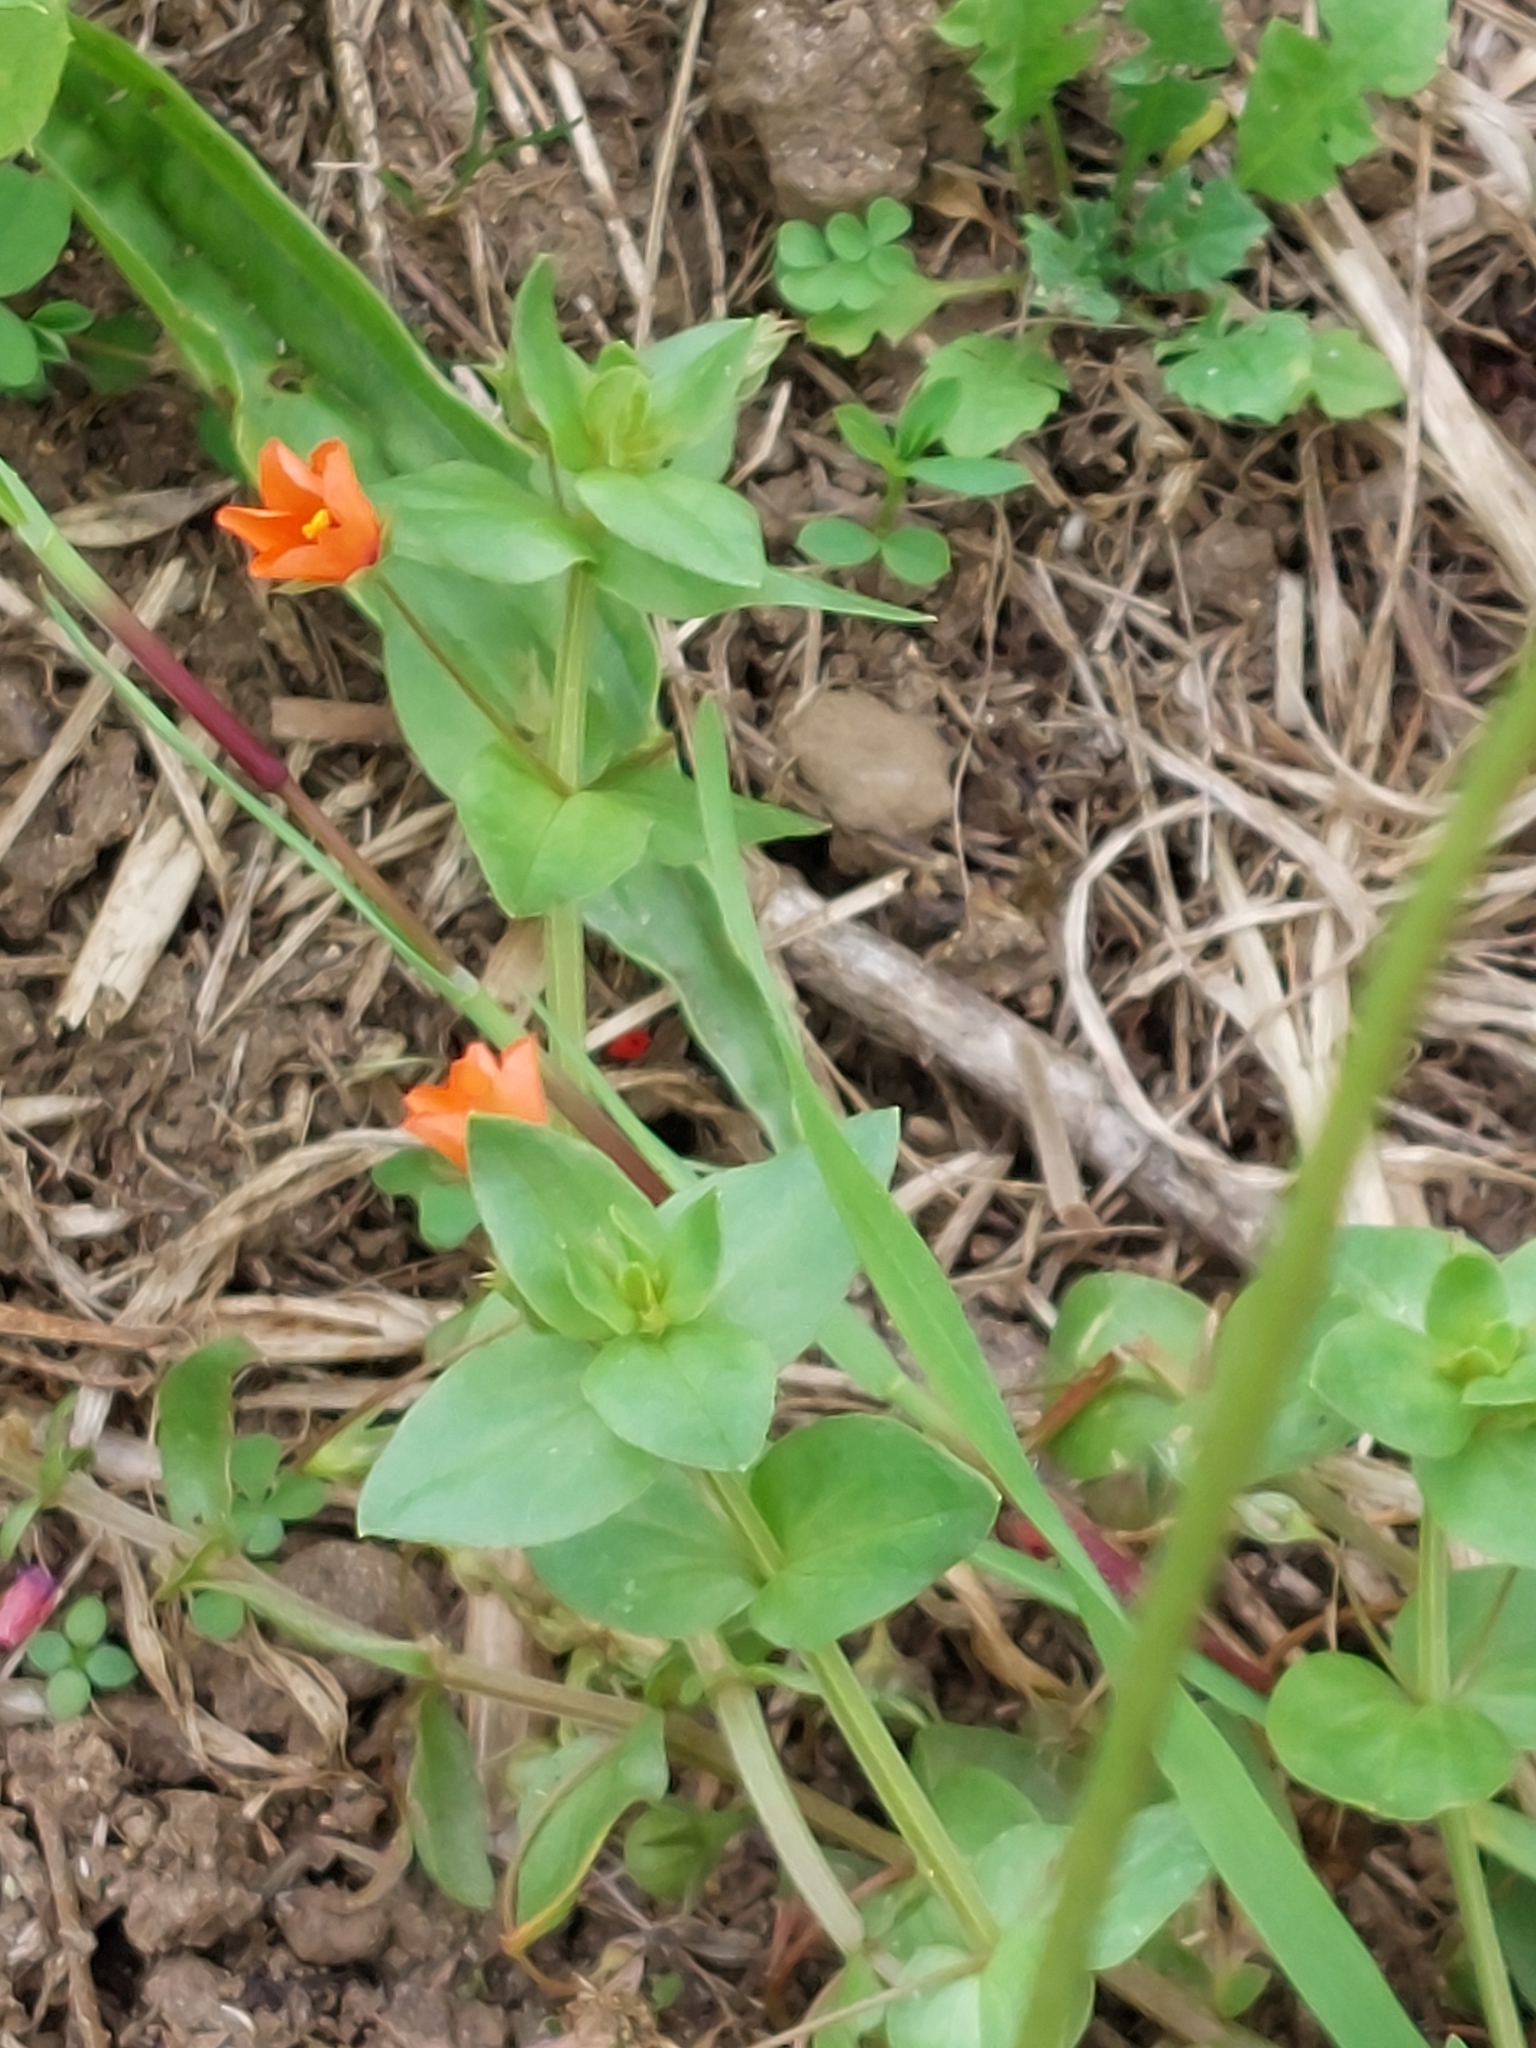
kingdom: Plantae
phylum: Tracheophyta
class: Magnoliopsida
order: Ericales
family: Primulaceae
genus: Lysimachia
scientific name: Lysimachia arvensis
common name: Scarlet pimpernel
